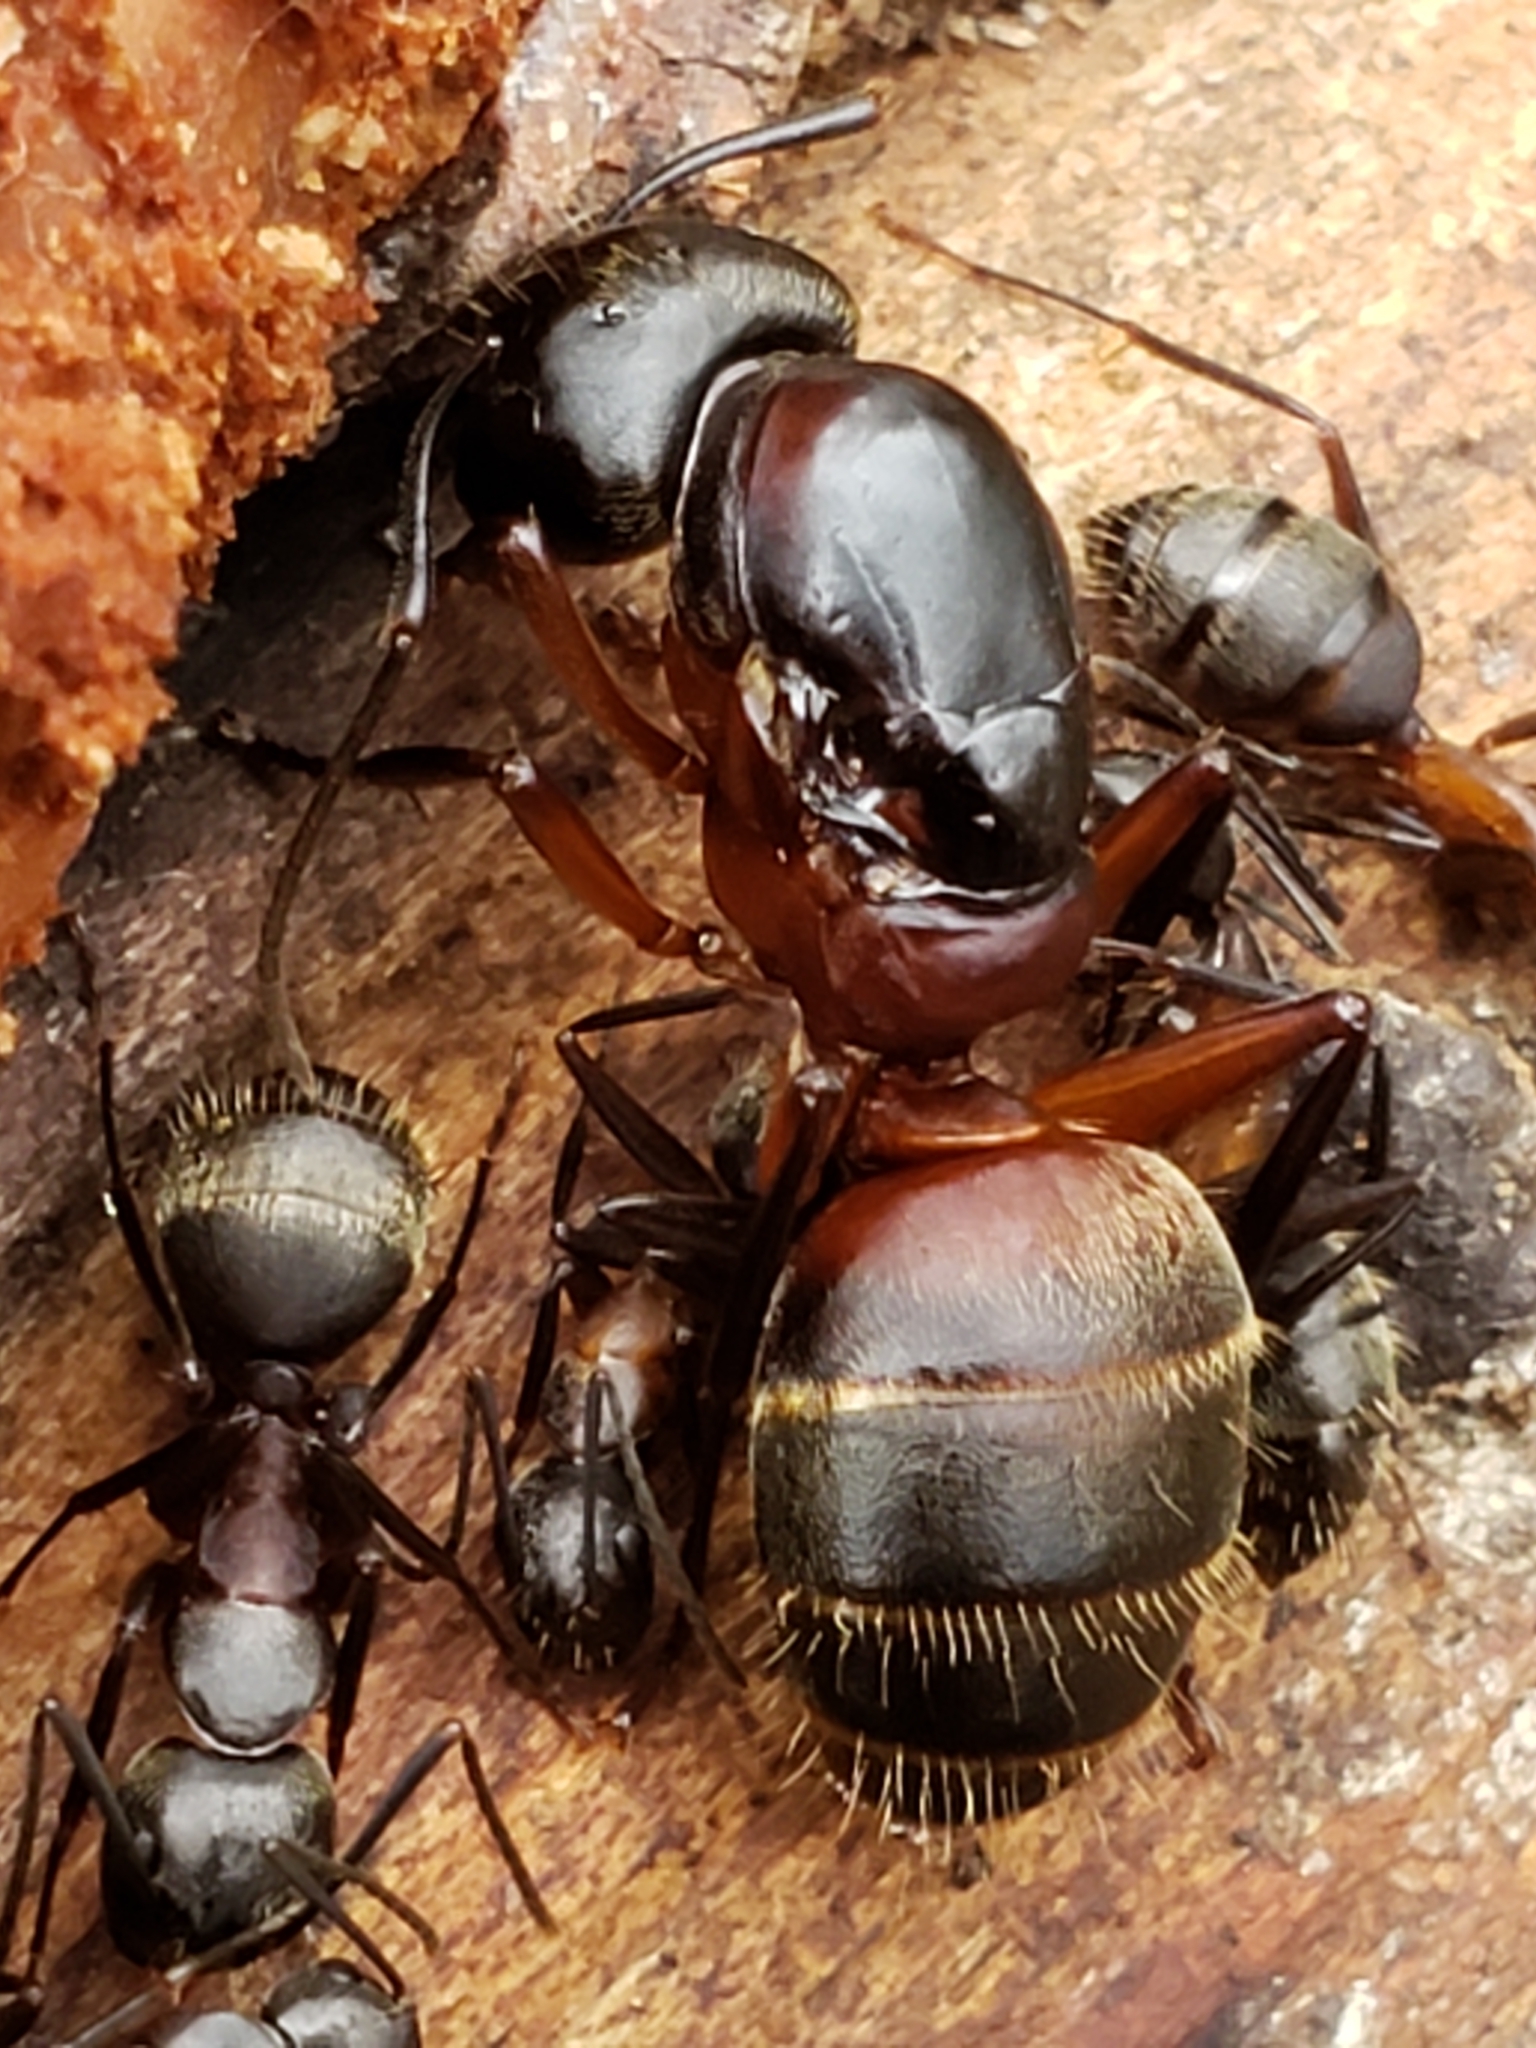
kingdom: Animalia
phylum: Arthropoda
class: Insecta
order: Hymenoptera
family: Formicidae
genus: Camponotus
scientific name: Camponotus chromaiodes
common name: Red carpenter ant
